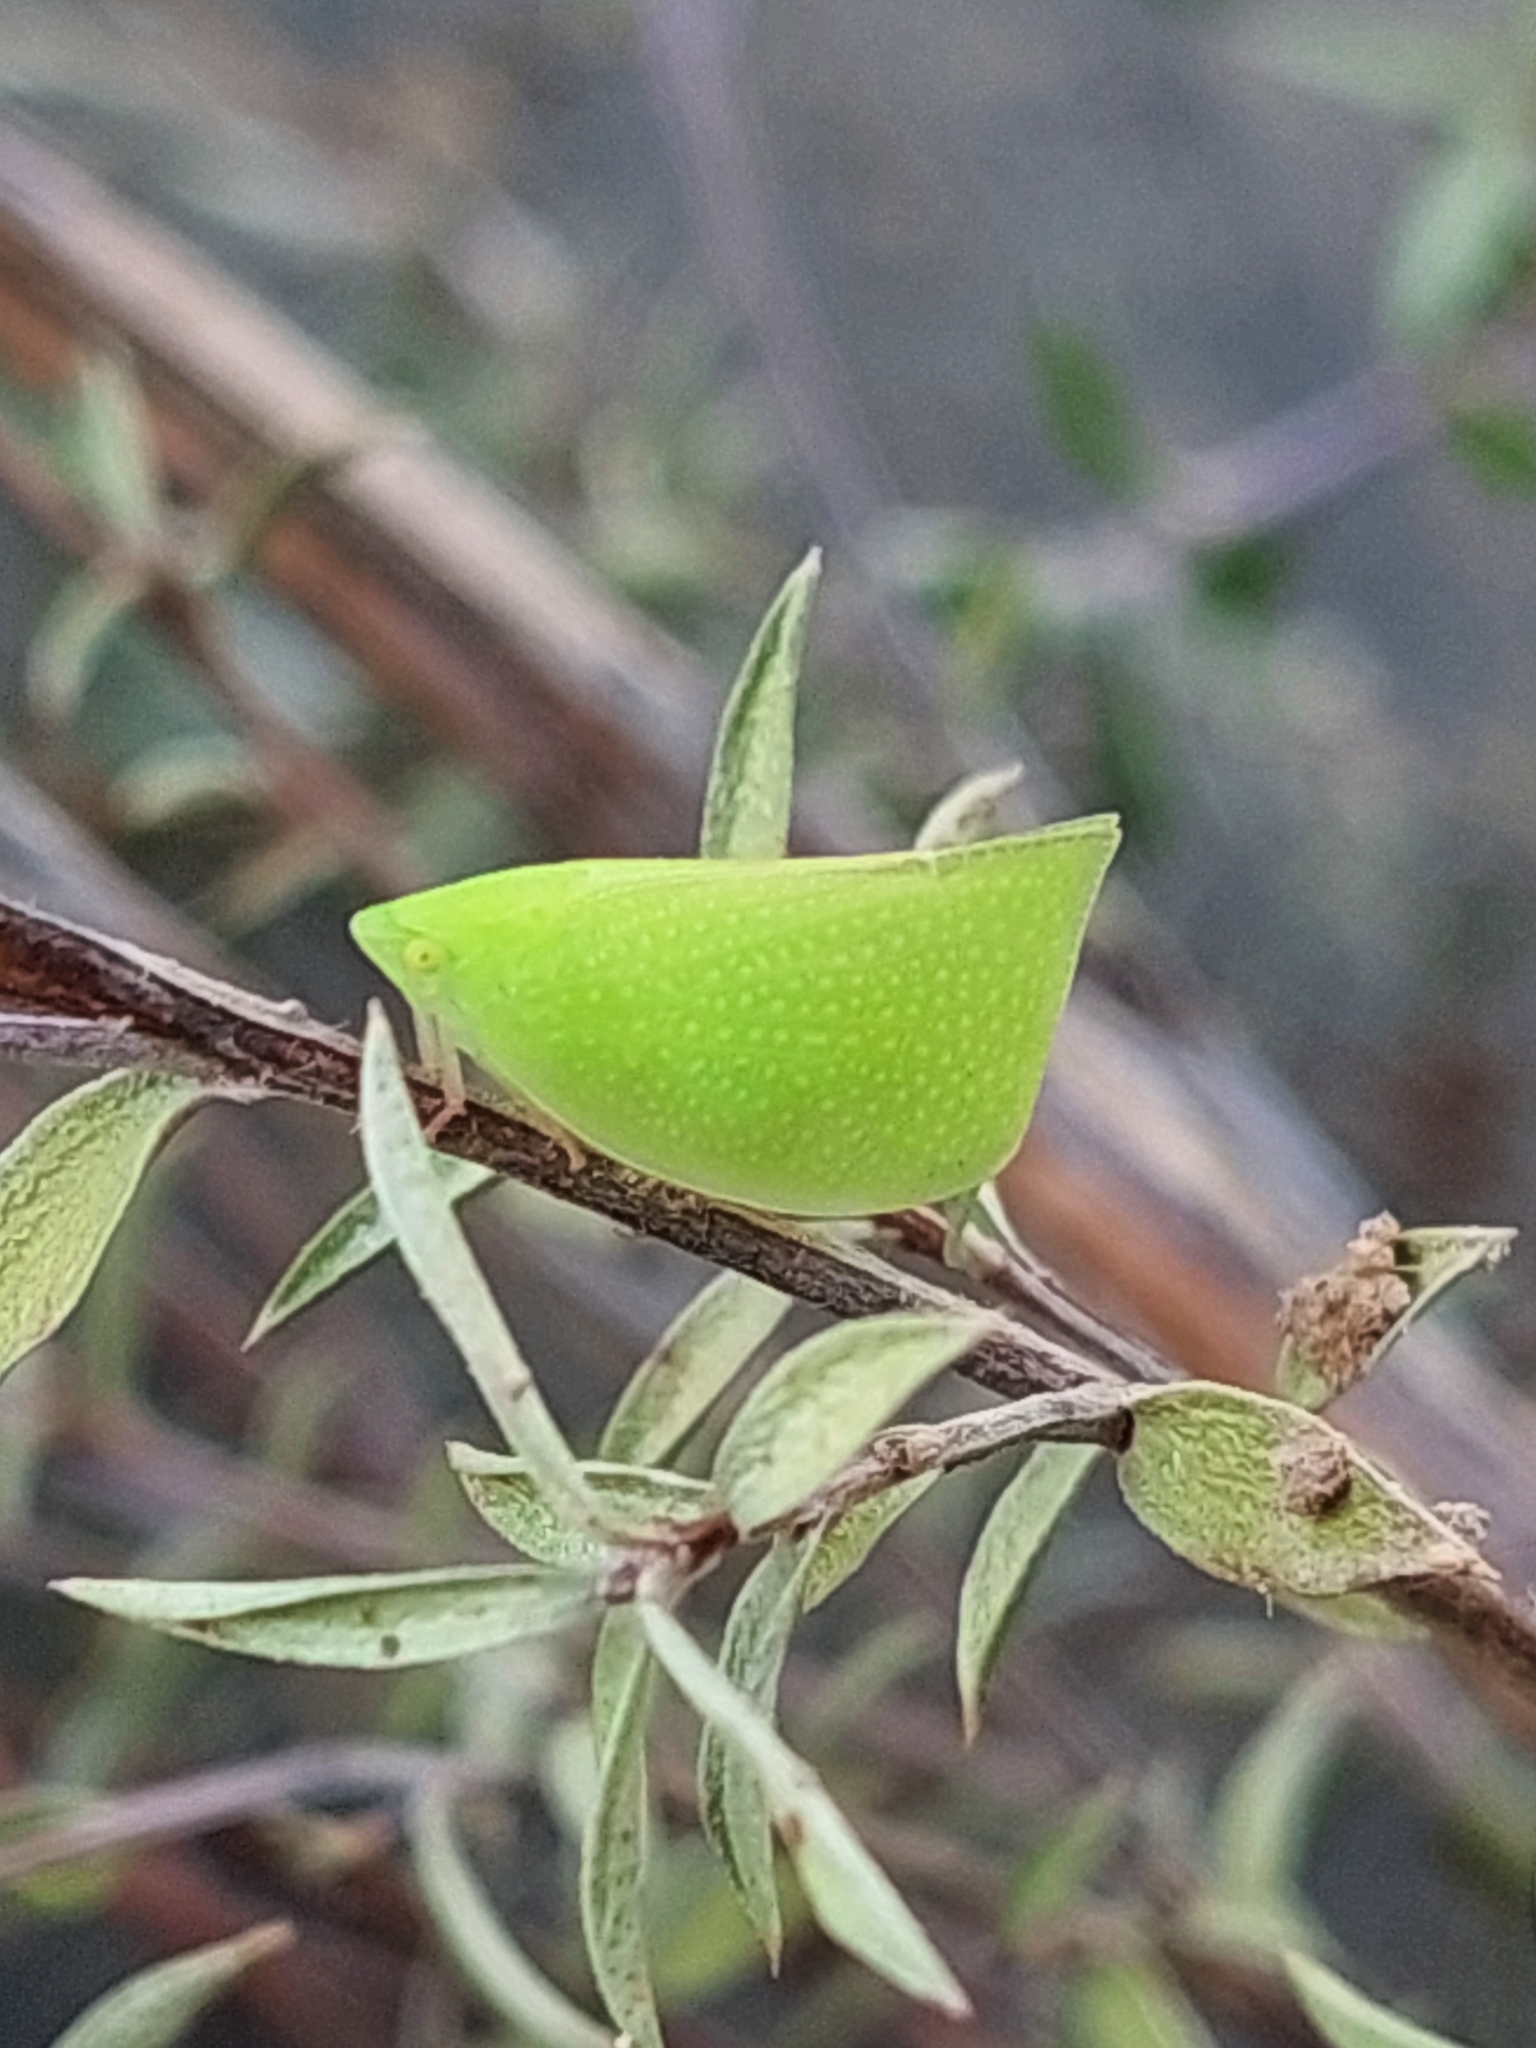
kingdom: Animalia
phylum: Arthropoda
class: Insecta
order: Hemiptera
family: Flatidae
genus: Siphanta
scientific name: Siphanta acuta
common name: Torpedo bug
